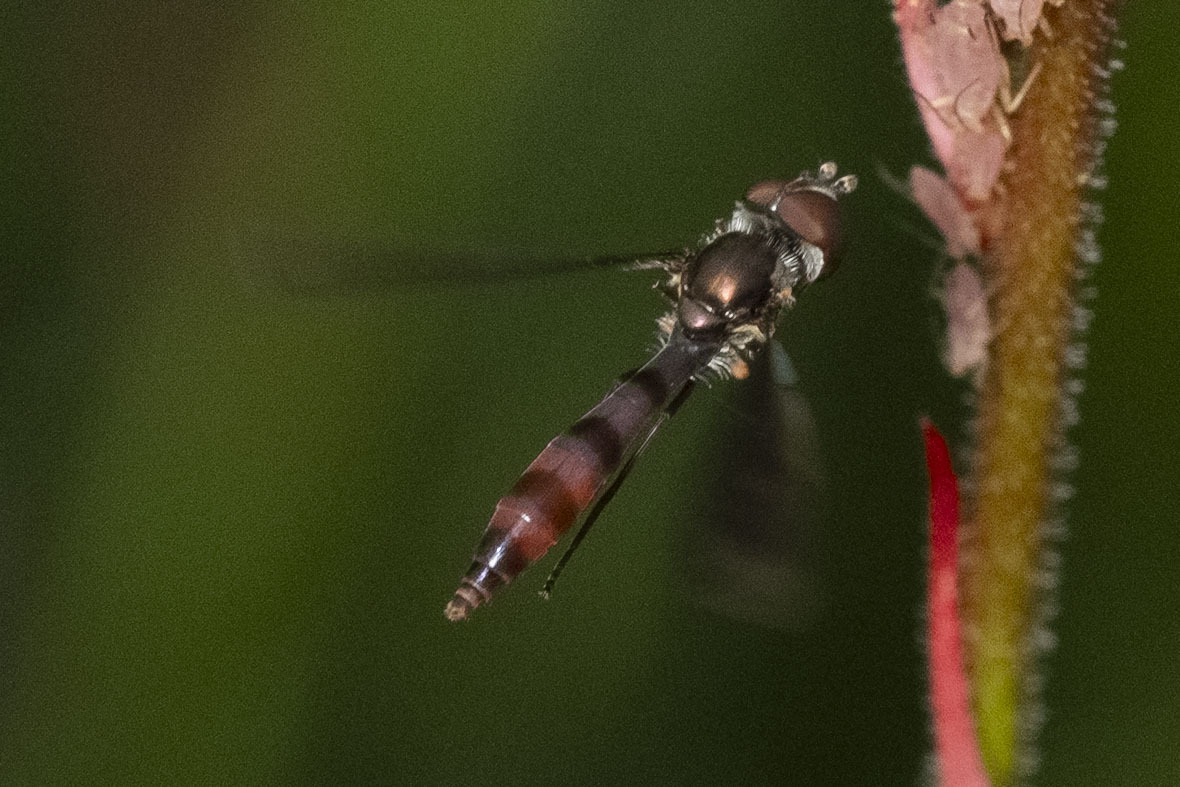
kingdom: Animalia
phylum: Arthropoda
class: Insecta
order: Diptera
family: Syrphidae
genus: Ocyptamus
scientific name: Ocyptamus fuscipennis
